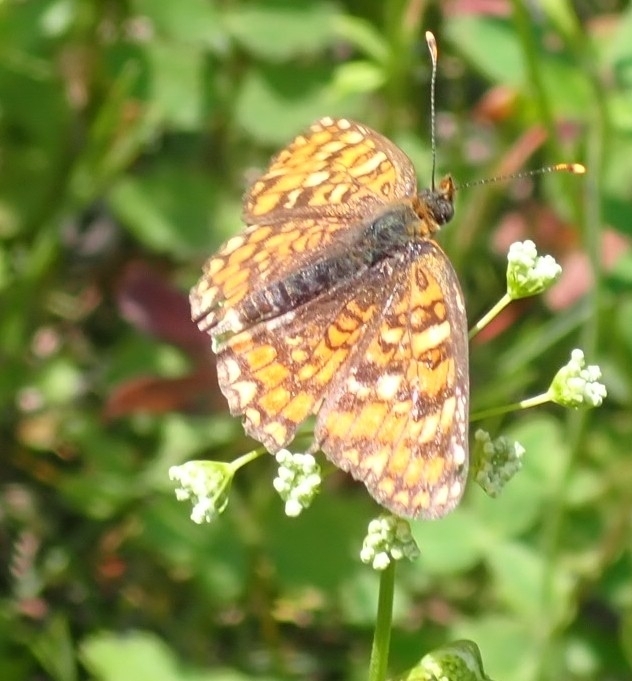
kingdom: Animalia
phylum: Arthropoda
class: Insecta
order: Lepidoptera
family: Nymphalidae
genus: Melitaea
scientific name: Melitaea phoebe
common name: Knapweed fritillary
